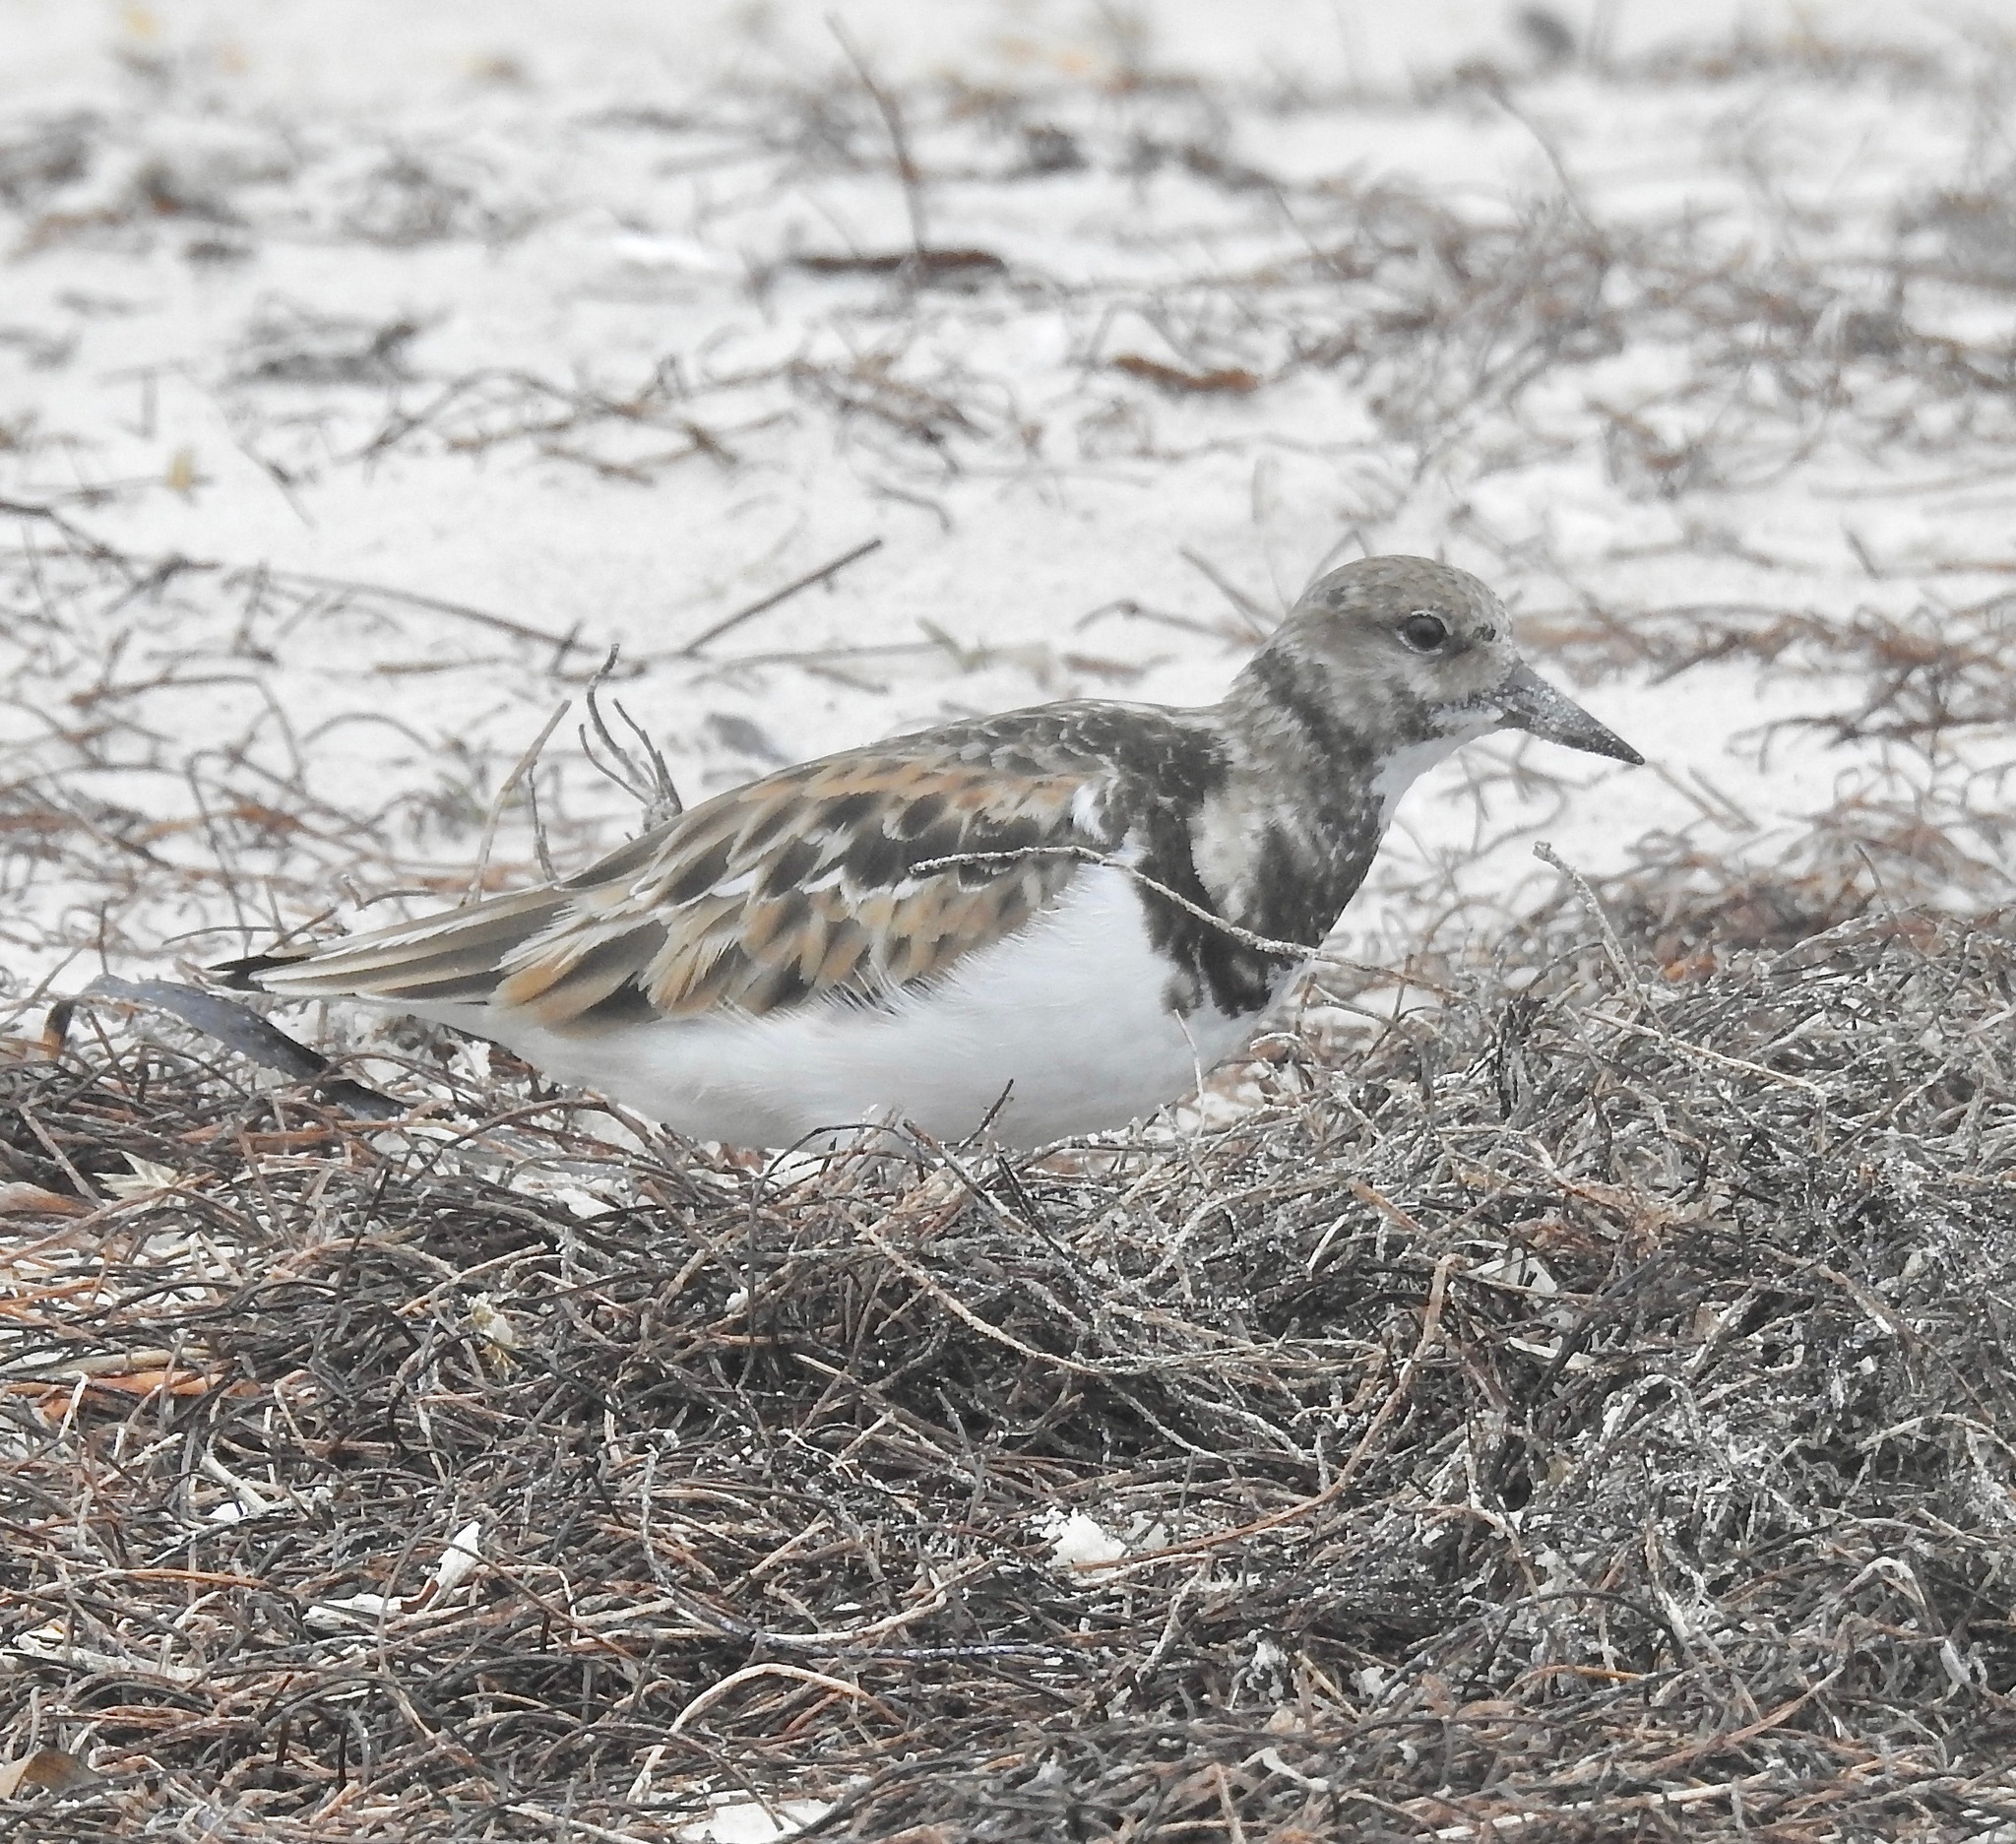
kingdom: Animalia
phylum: Chordata
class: Aves
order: Charadriiformes
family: Scolopacidae
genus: Arenaria
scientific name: Arenaria interpres
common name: Ruddy turnstone
